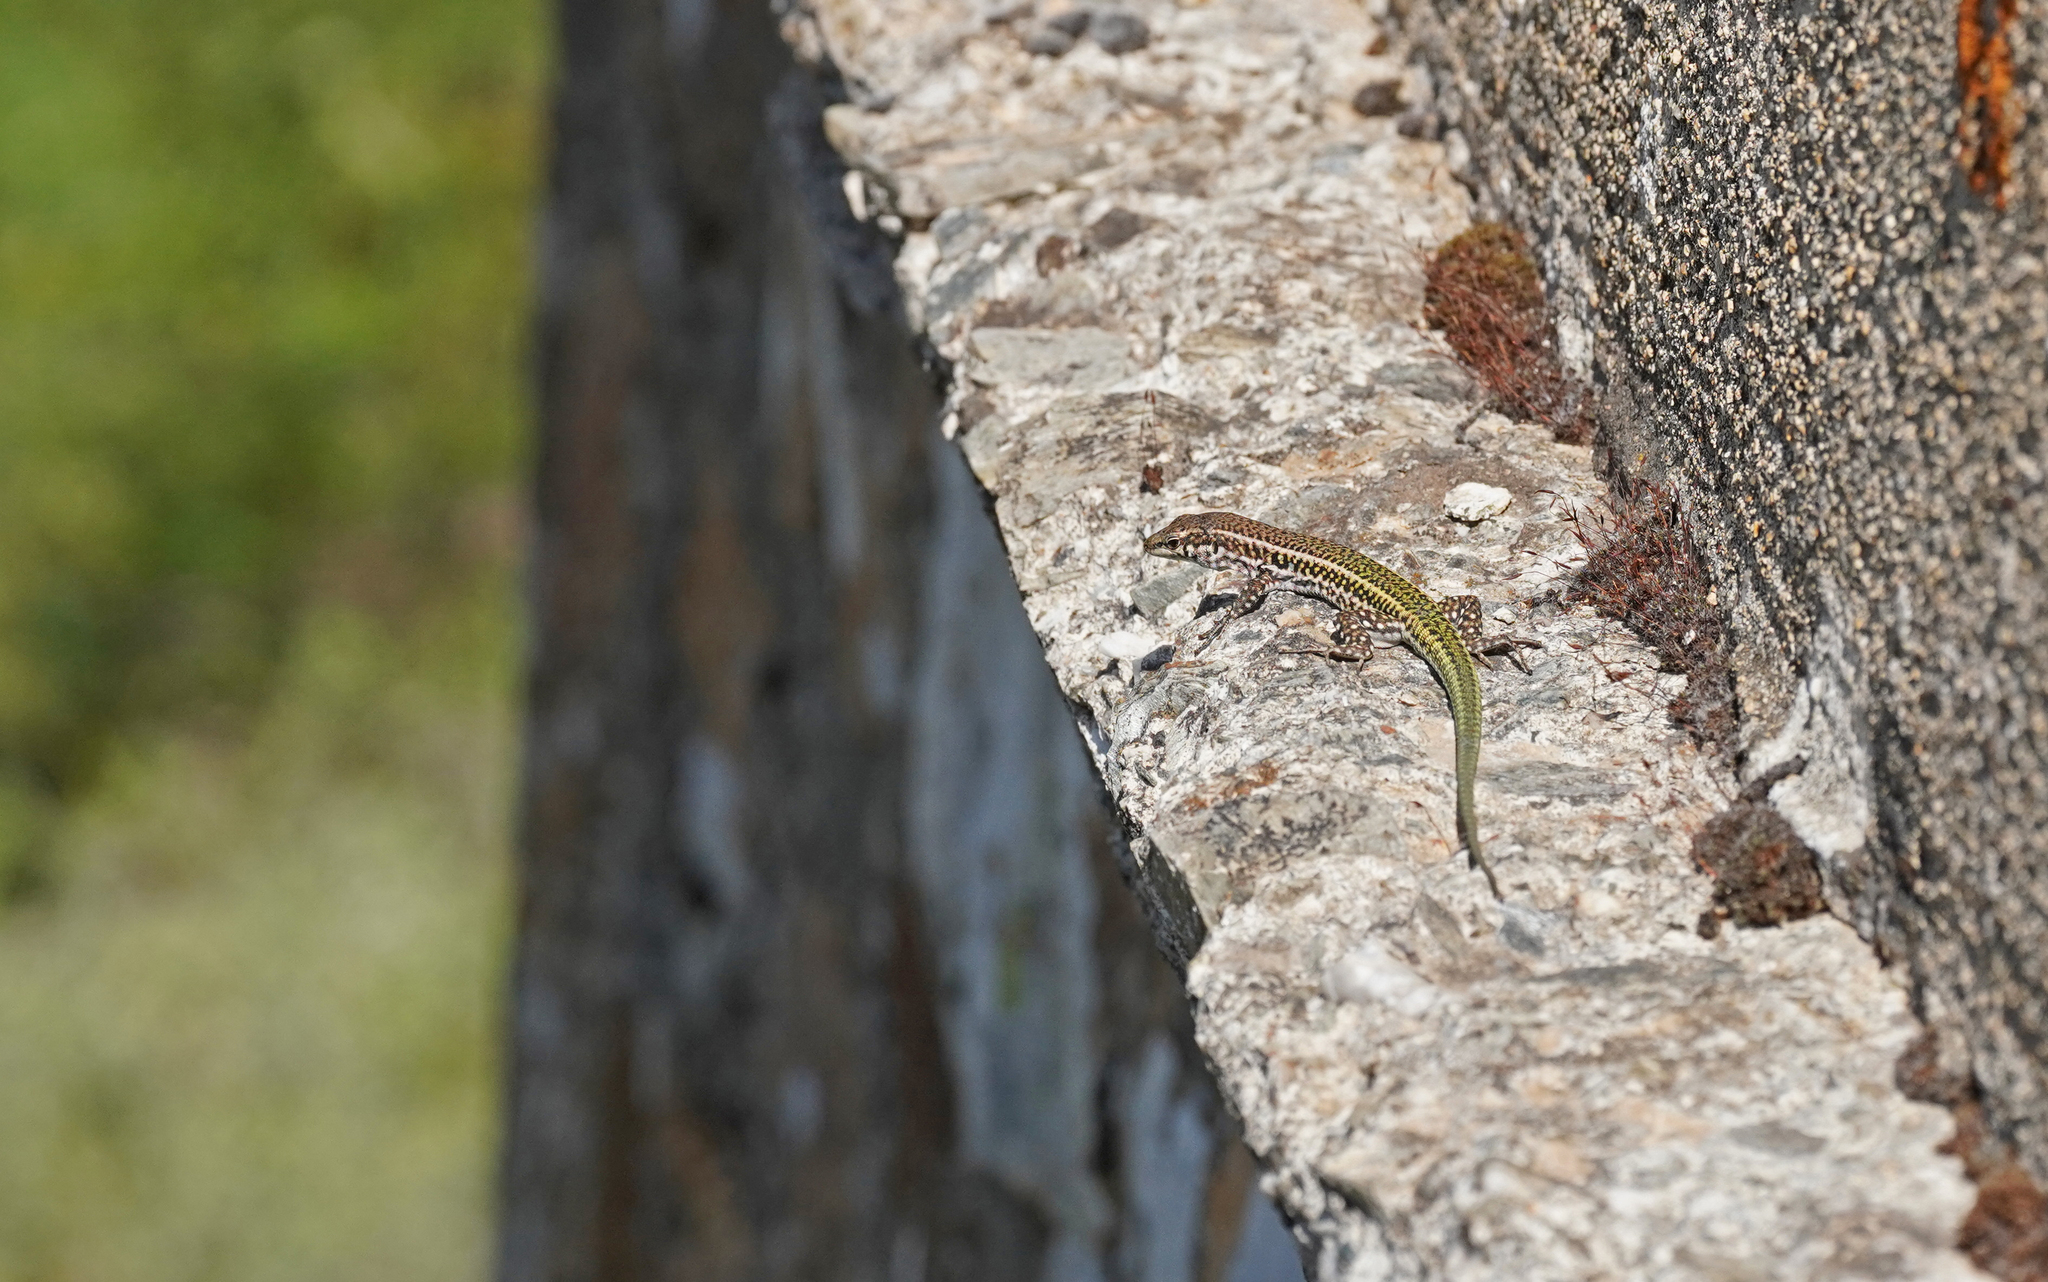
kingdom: Animalia
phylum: Chordata
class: Squamata
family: Lacertidae
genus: Podarcis
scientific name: Podarcis tiliguerta
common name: Tyrrhenian wall lizard
